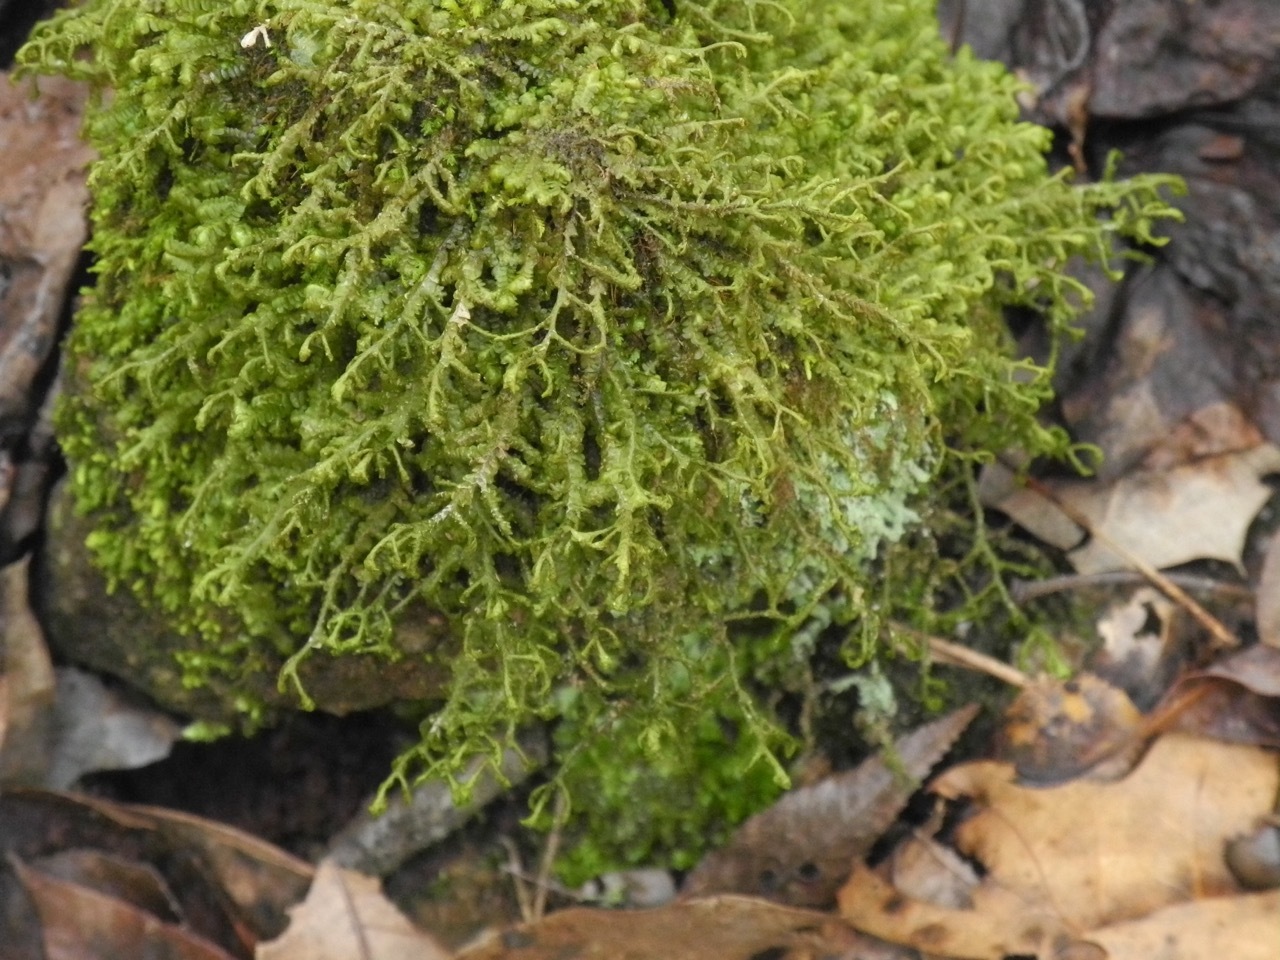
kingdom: Plantae
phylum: Marchantiophyta
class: Jungermanniopsida
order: Porellales
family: Porellaceae
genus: Porella
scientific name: Porella pinnata
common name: Pinnate scalewort
